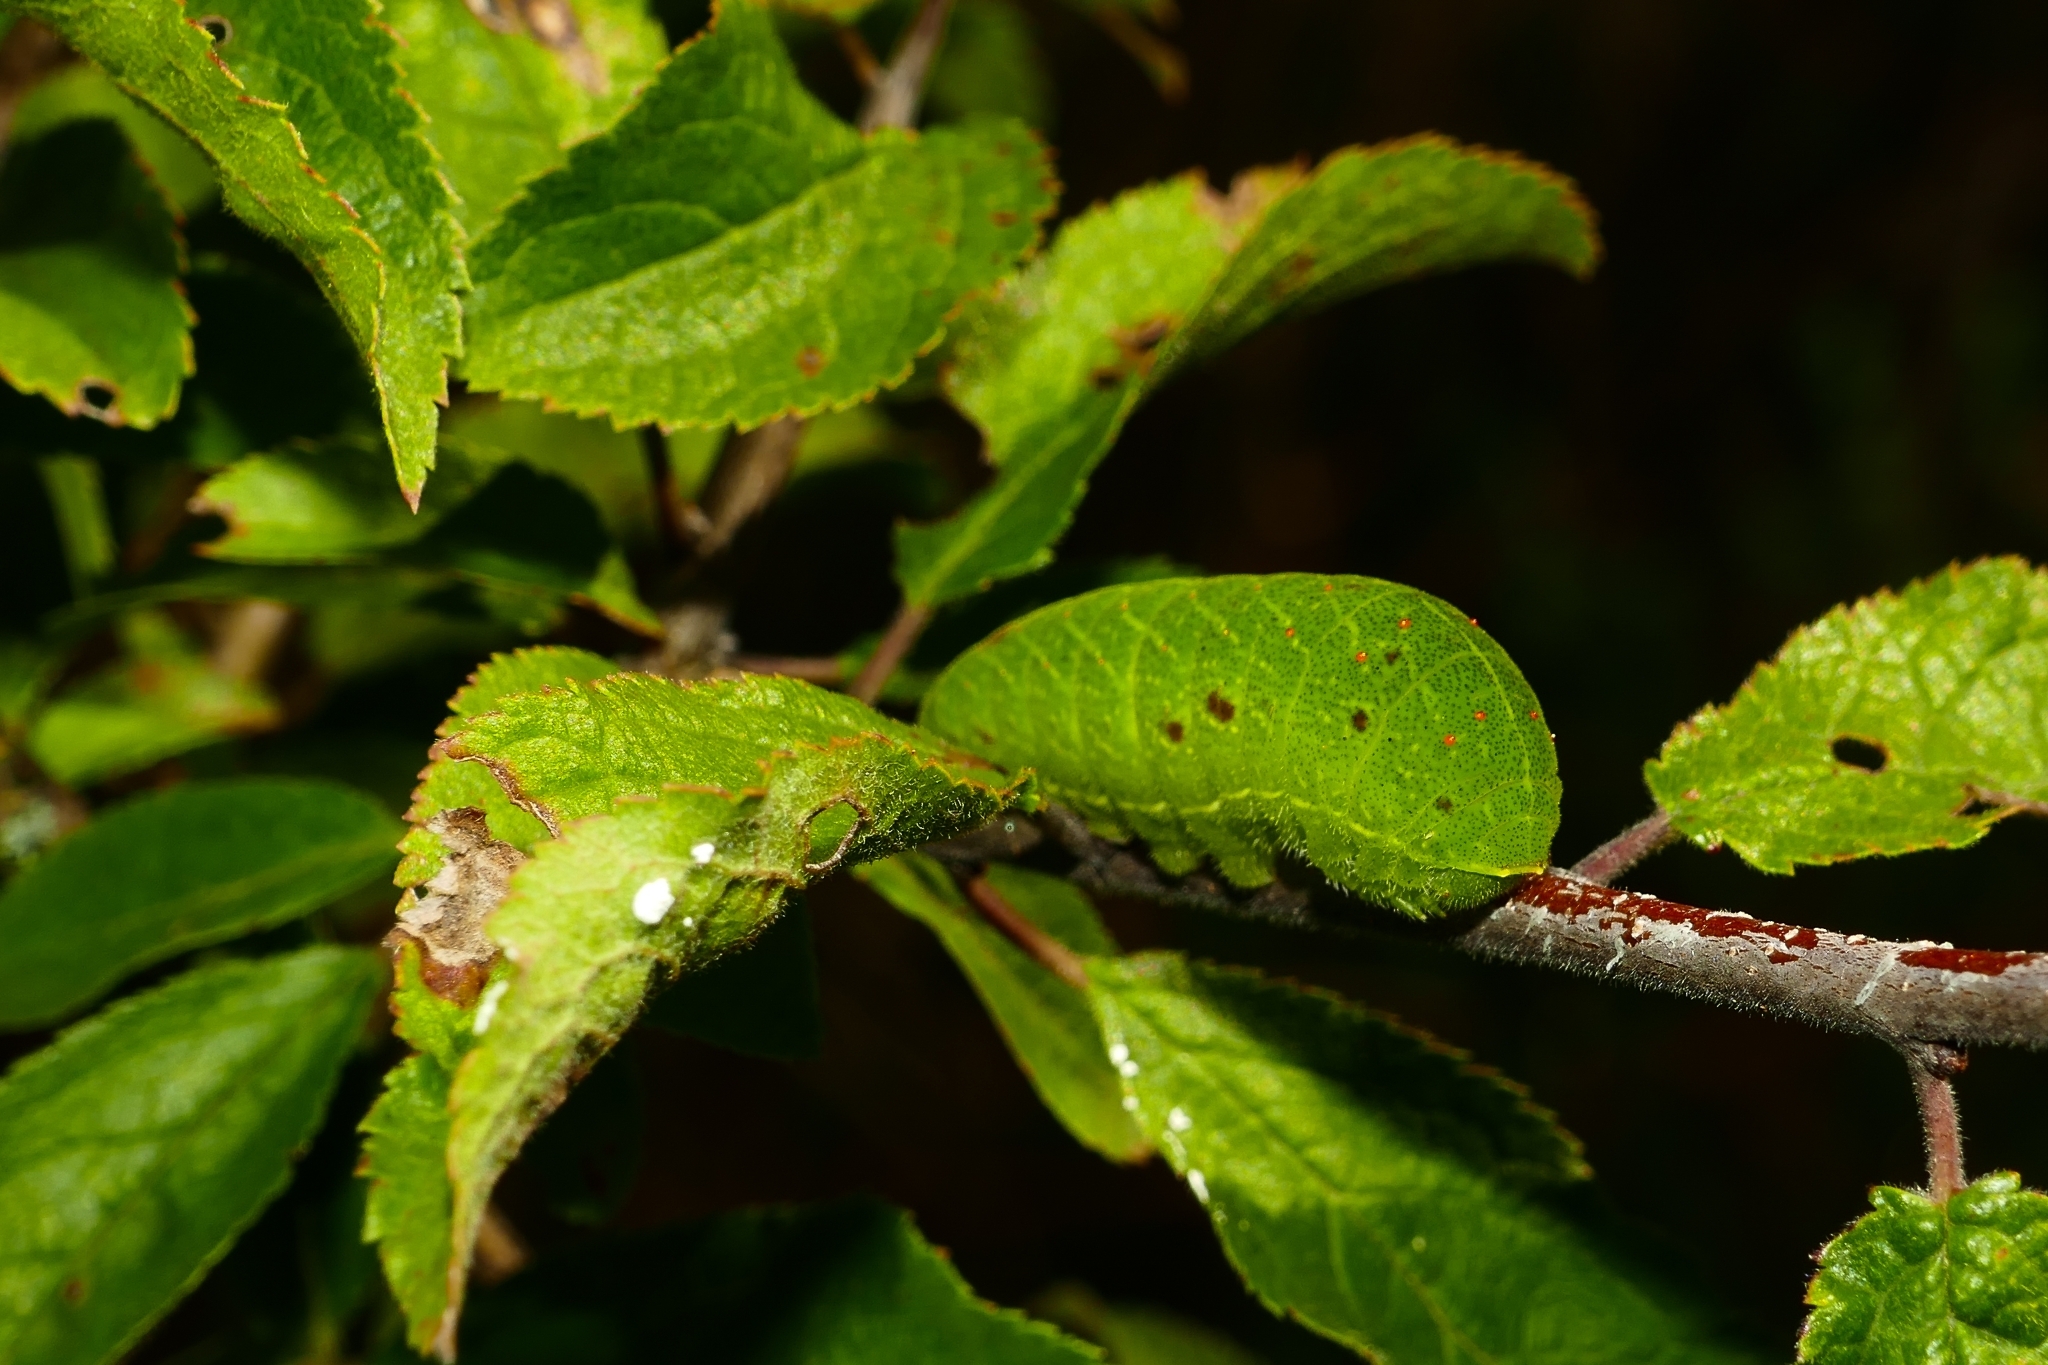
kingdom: Animalia
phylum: Arthropoda
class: Insecta
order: Lepidoptera
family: Papilionidae
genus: Iphiclides
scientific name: Iphiclides podalirius
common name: Scarce swallowtail
